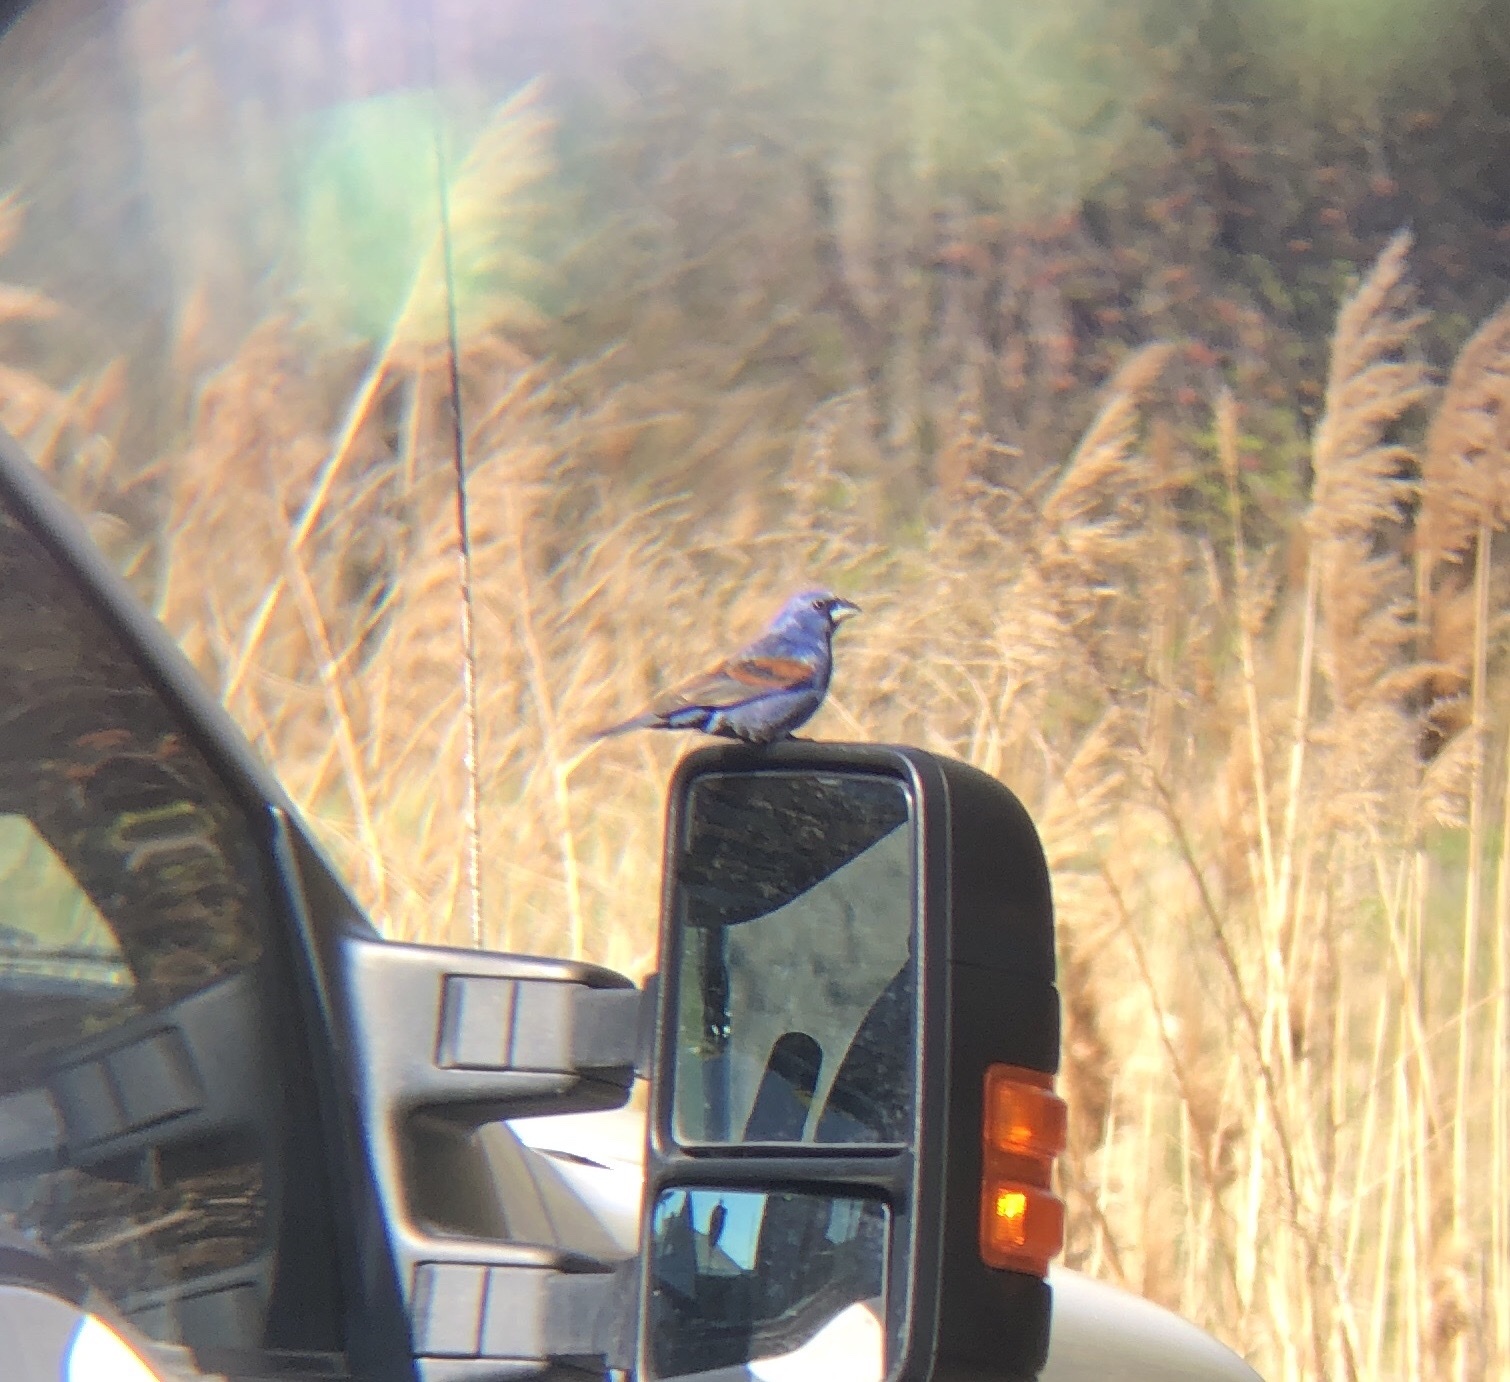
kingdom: Animalia
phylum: Chordata
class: Aves
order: Passeriformes
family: Cardinalidae
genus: Passerina
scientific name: Passerina caerulea
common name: Blue grosbeak
